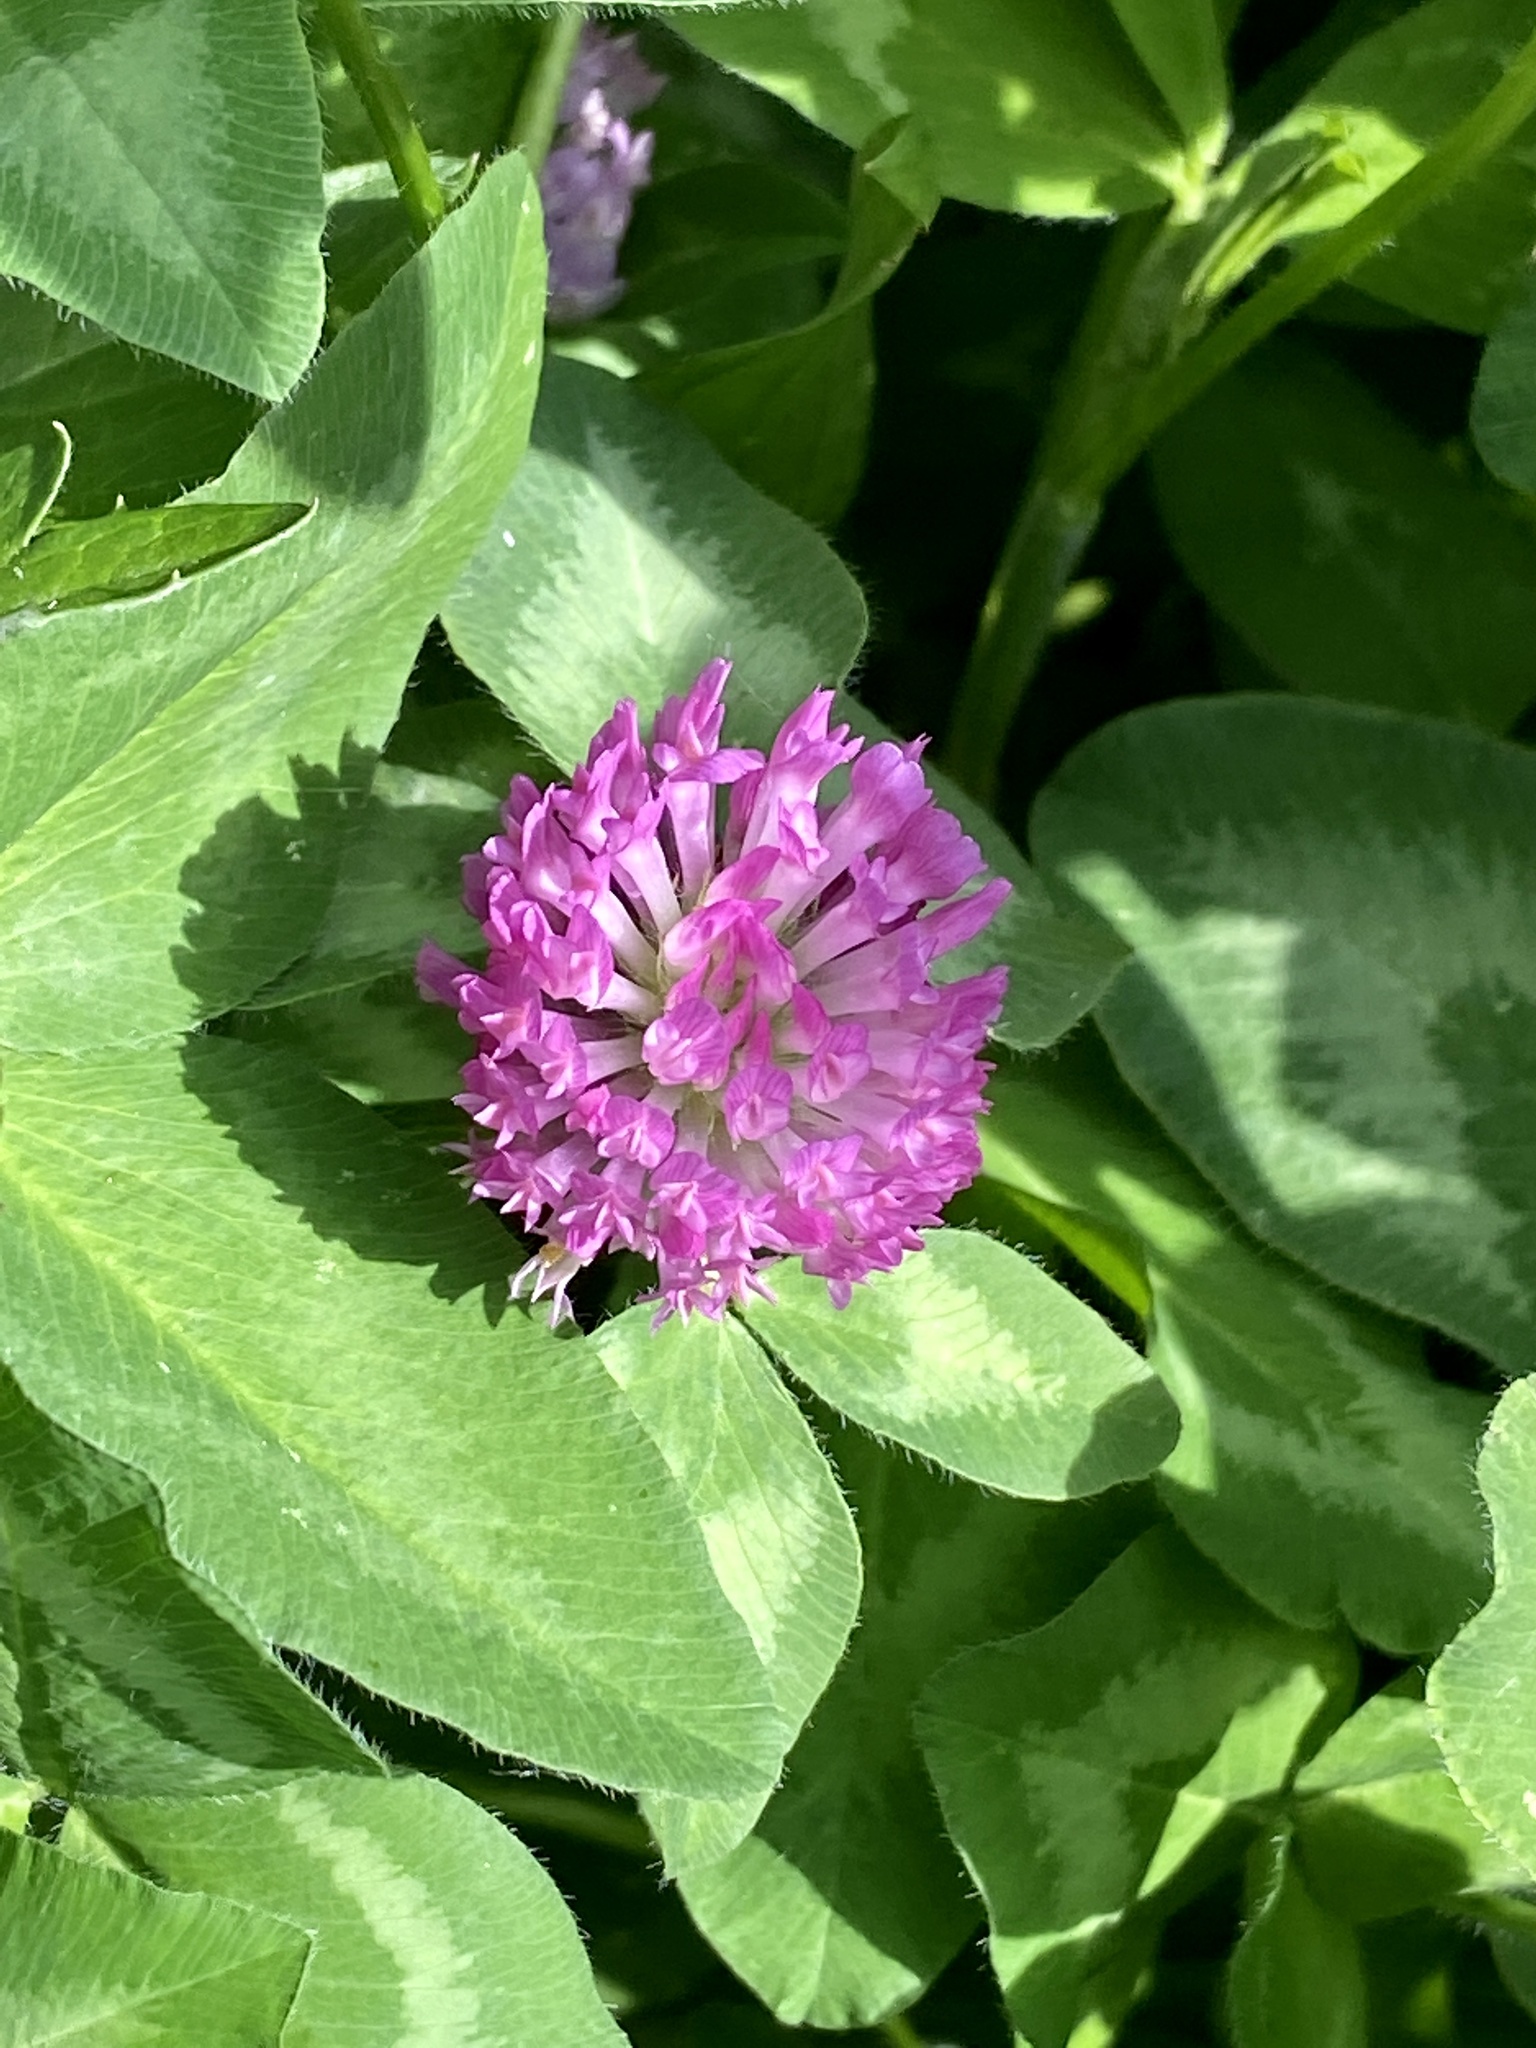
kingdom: Plantae
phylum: Tracheophyta
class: Magnoliopsida
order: Fabales
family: Fabaceae
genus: Trifolium
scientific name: Trifolium pratense
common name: Red clover
